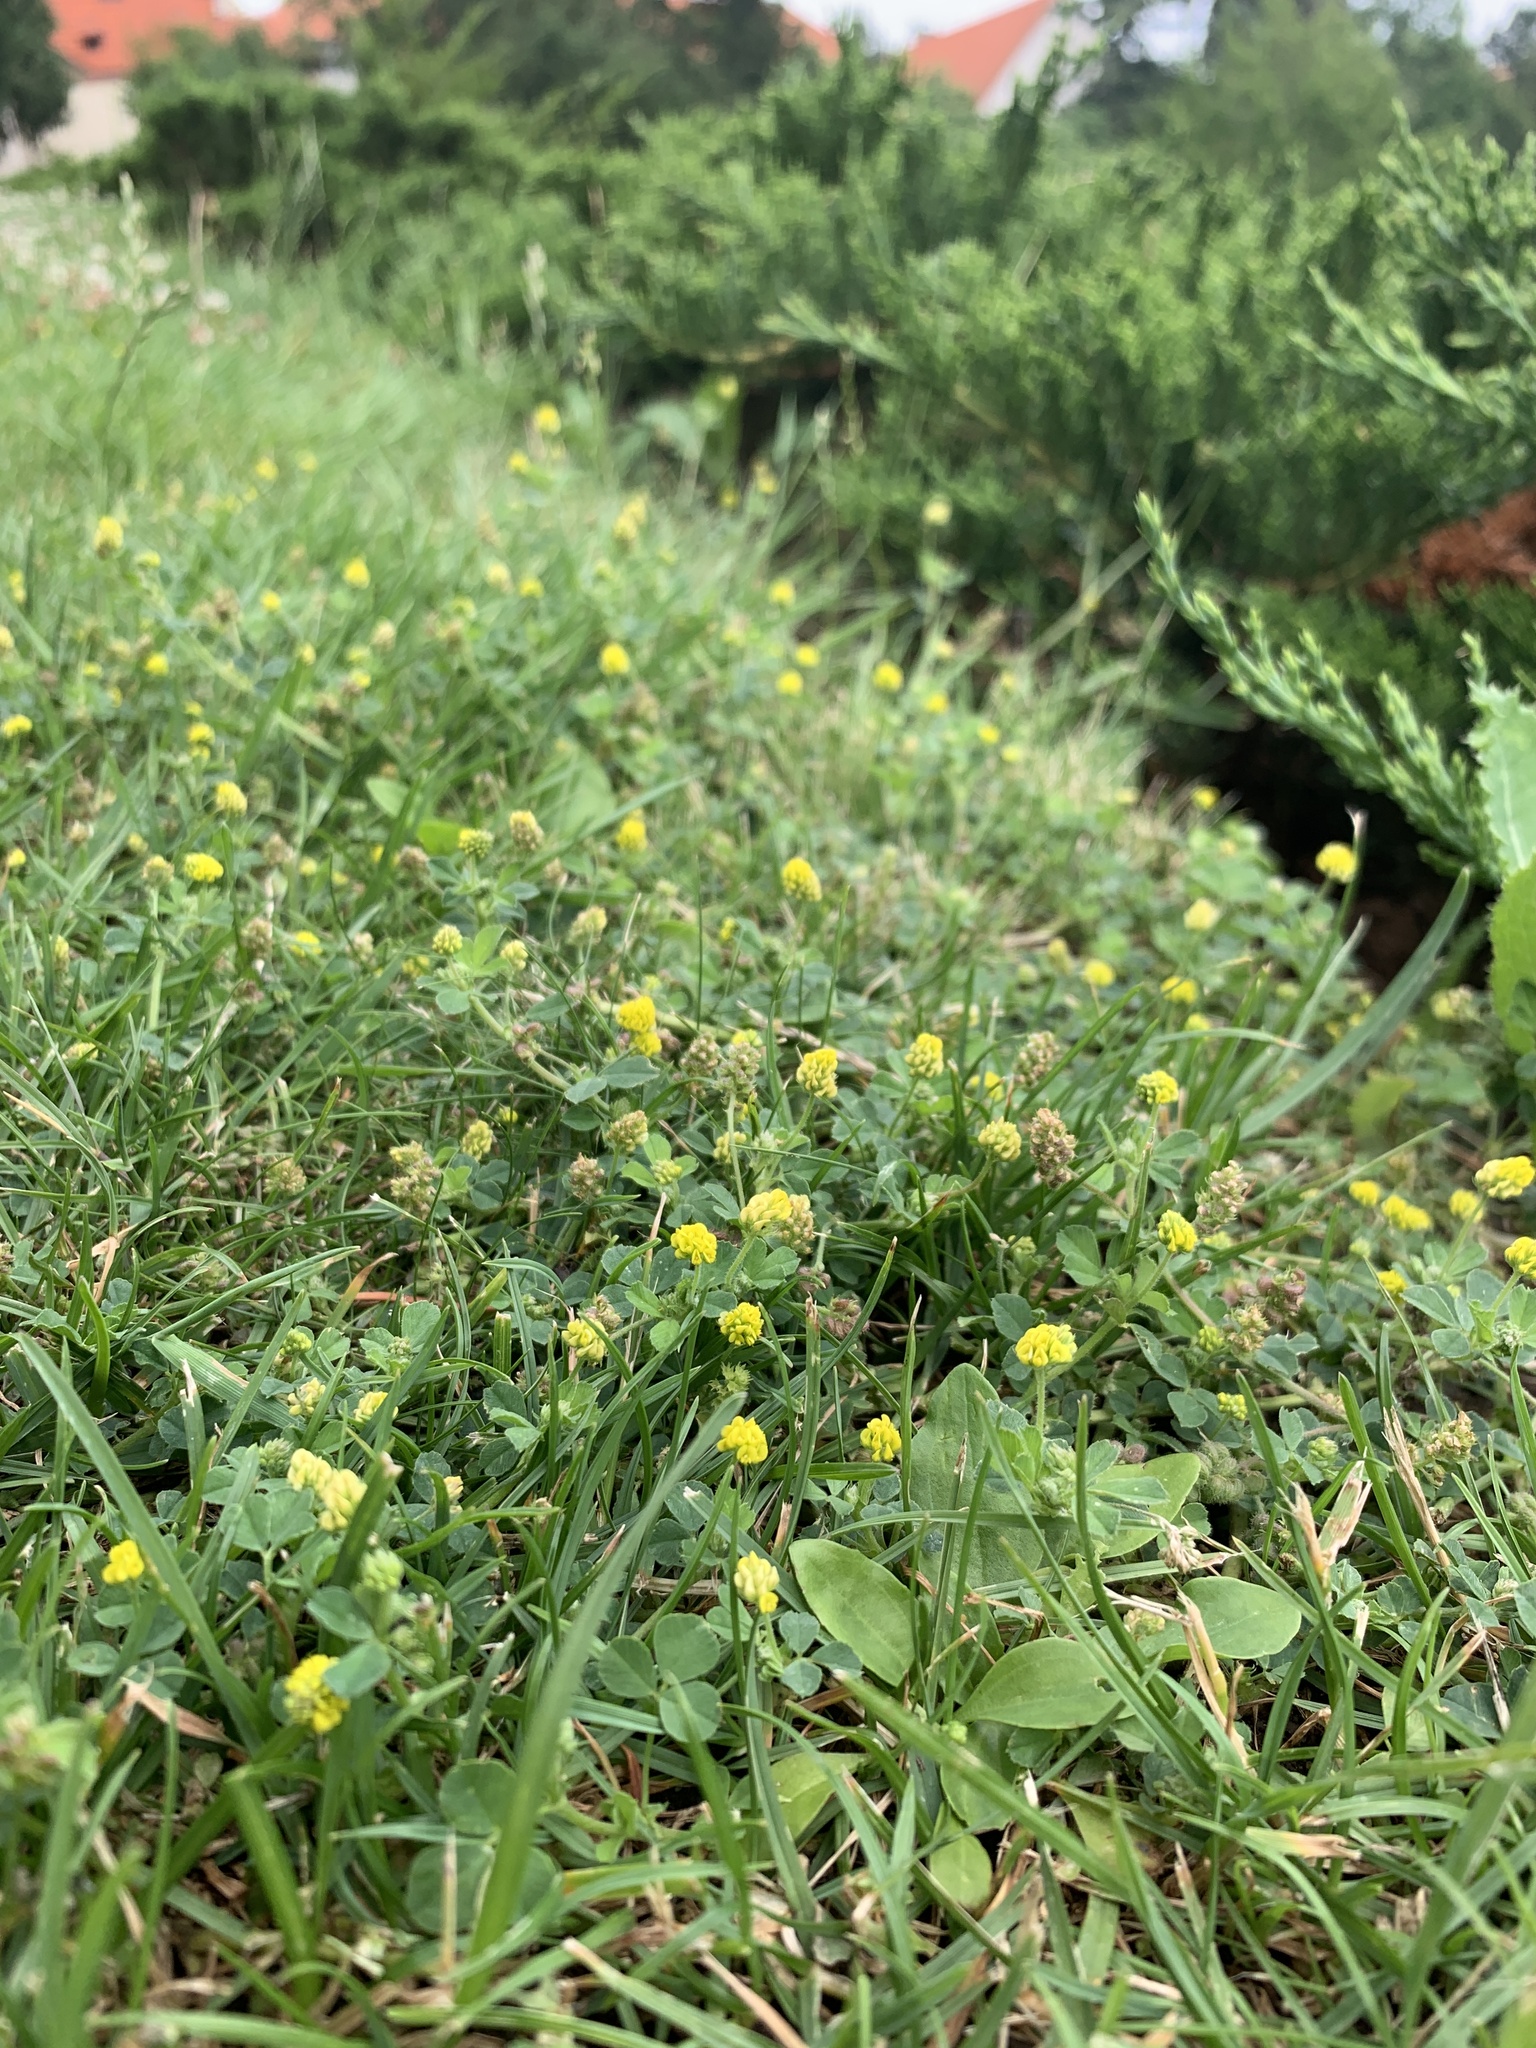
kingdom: Plantae
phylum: Tracheophyta
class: Magnoliopsida
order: Fabales
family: Fabaceae
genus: Medicago
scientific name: Medicago lupulina
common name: Black medick
